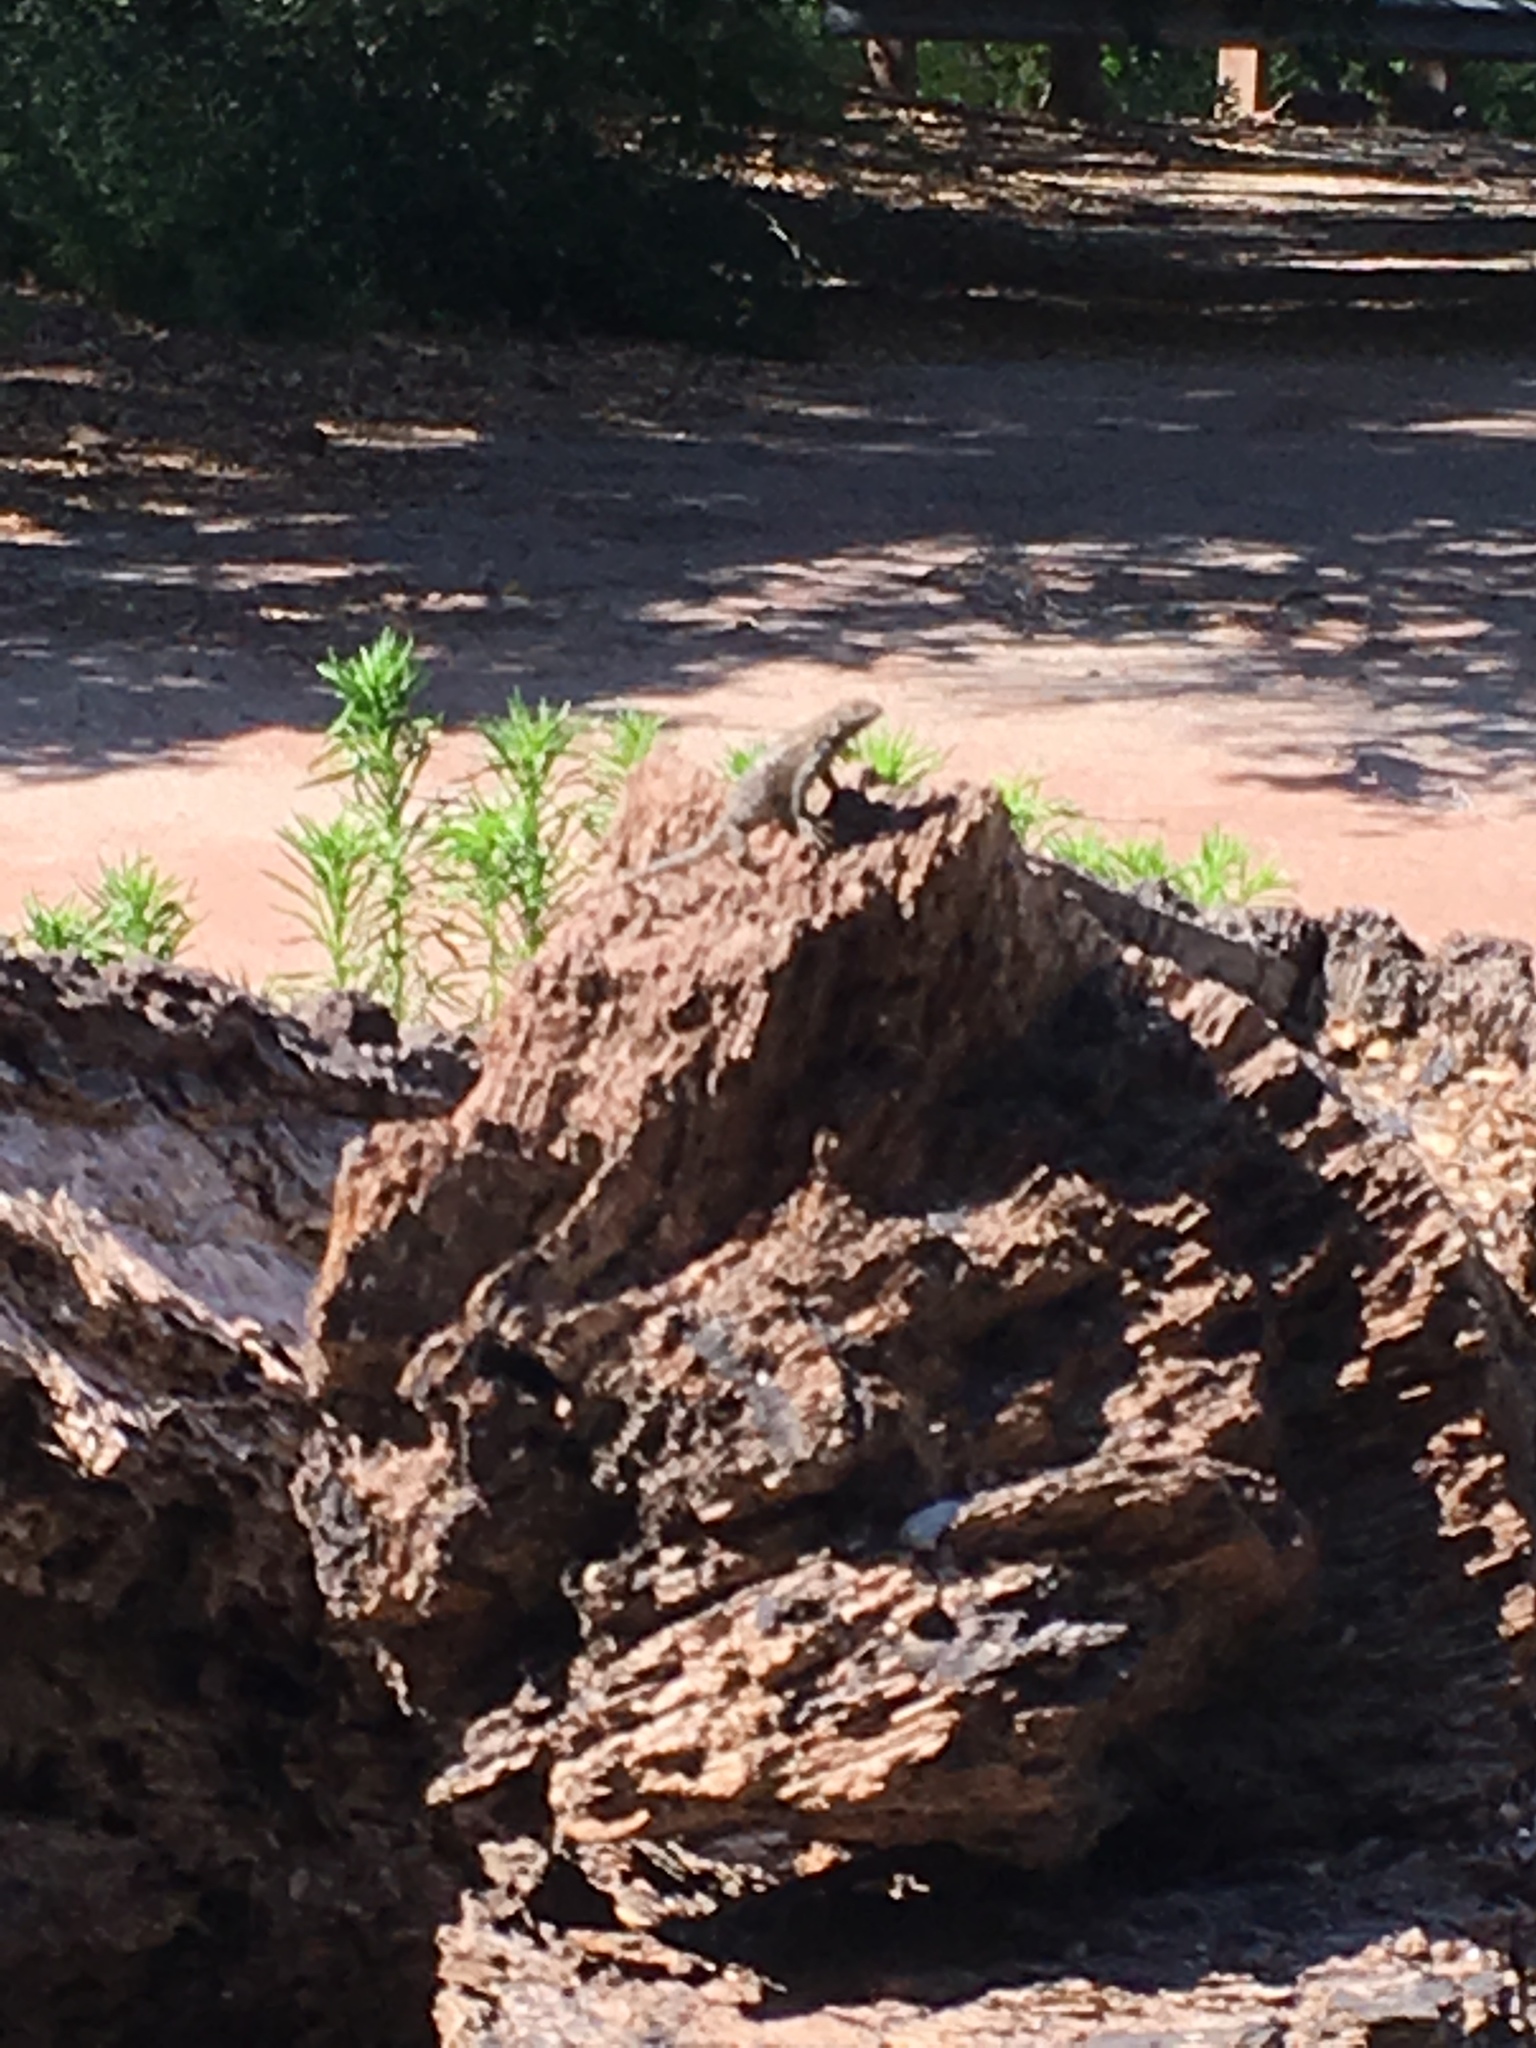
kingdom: Animalia
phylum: Chordata
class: Squamata
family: Phrynosomatidae
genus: Sceloporus
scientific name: Sceloporus occidentalis
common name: Western fence lizard
